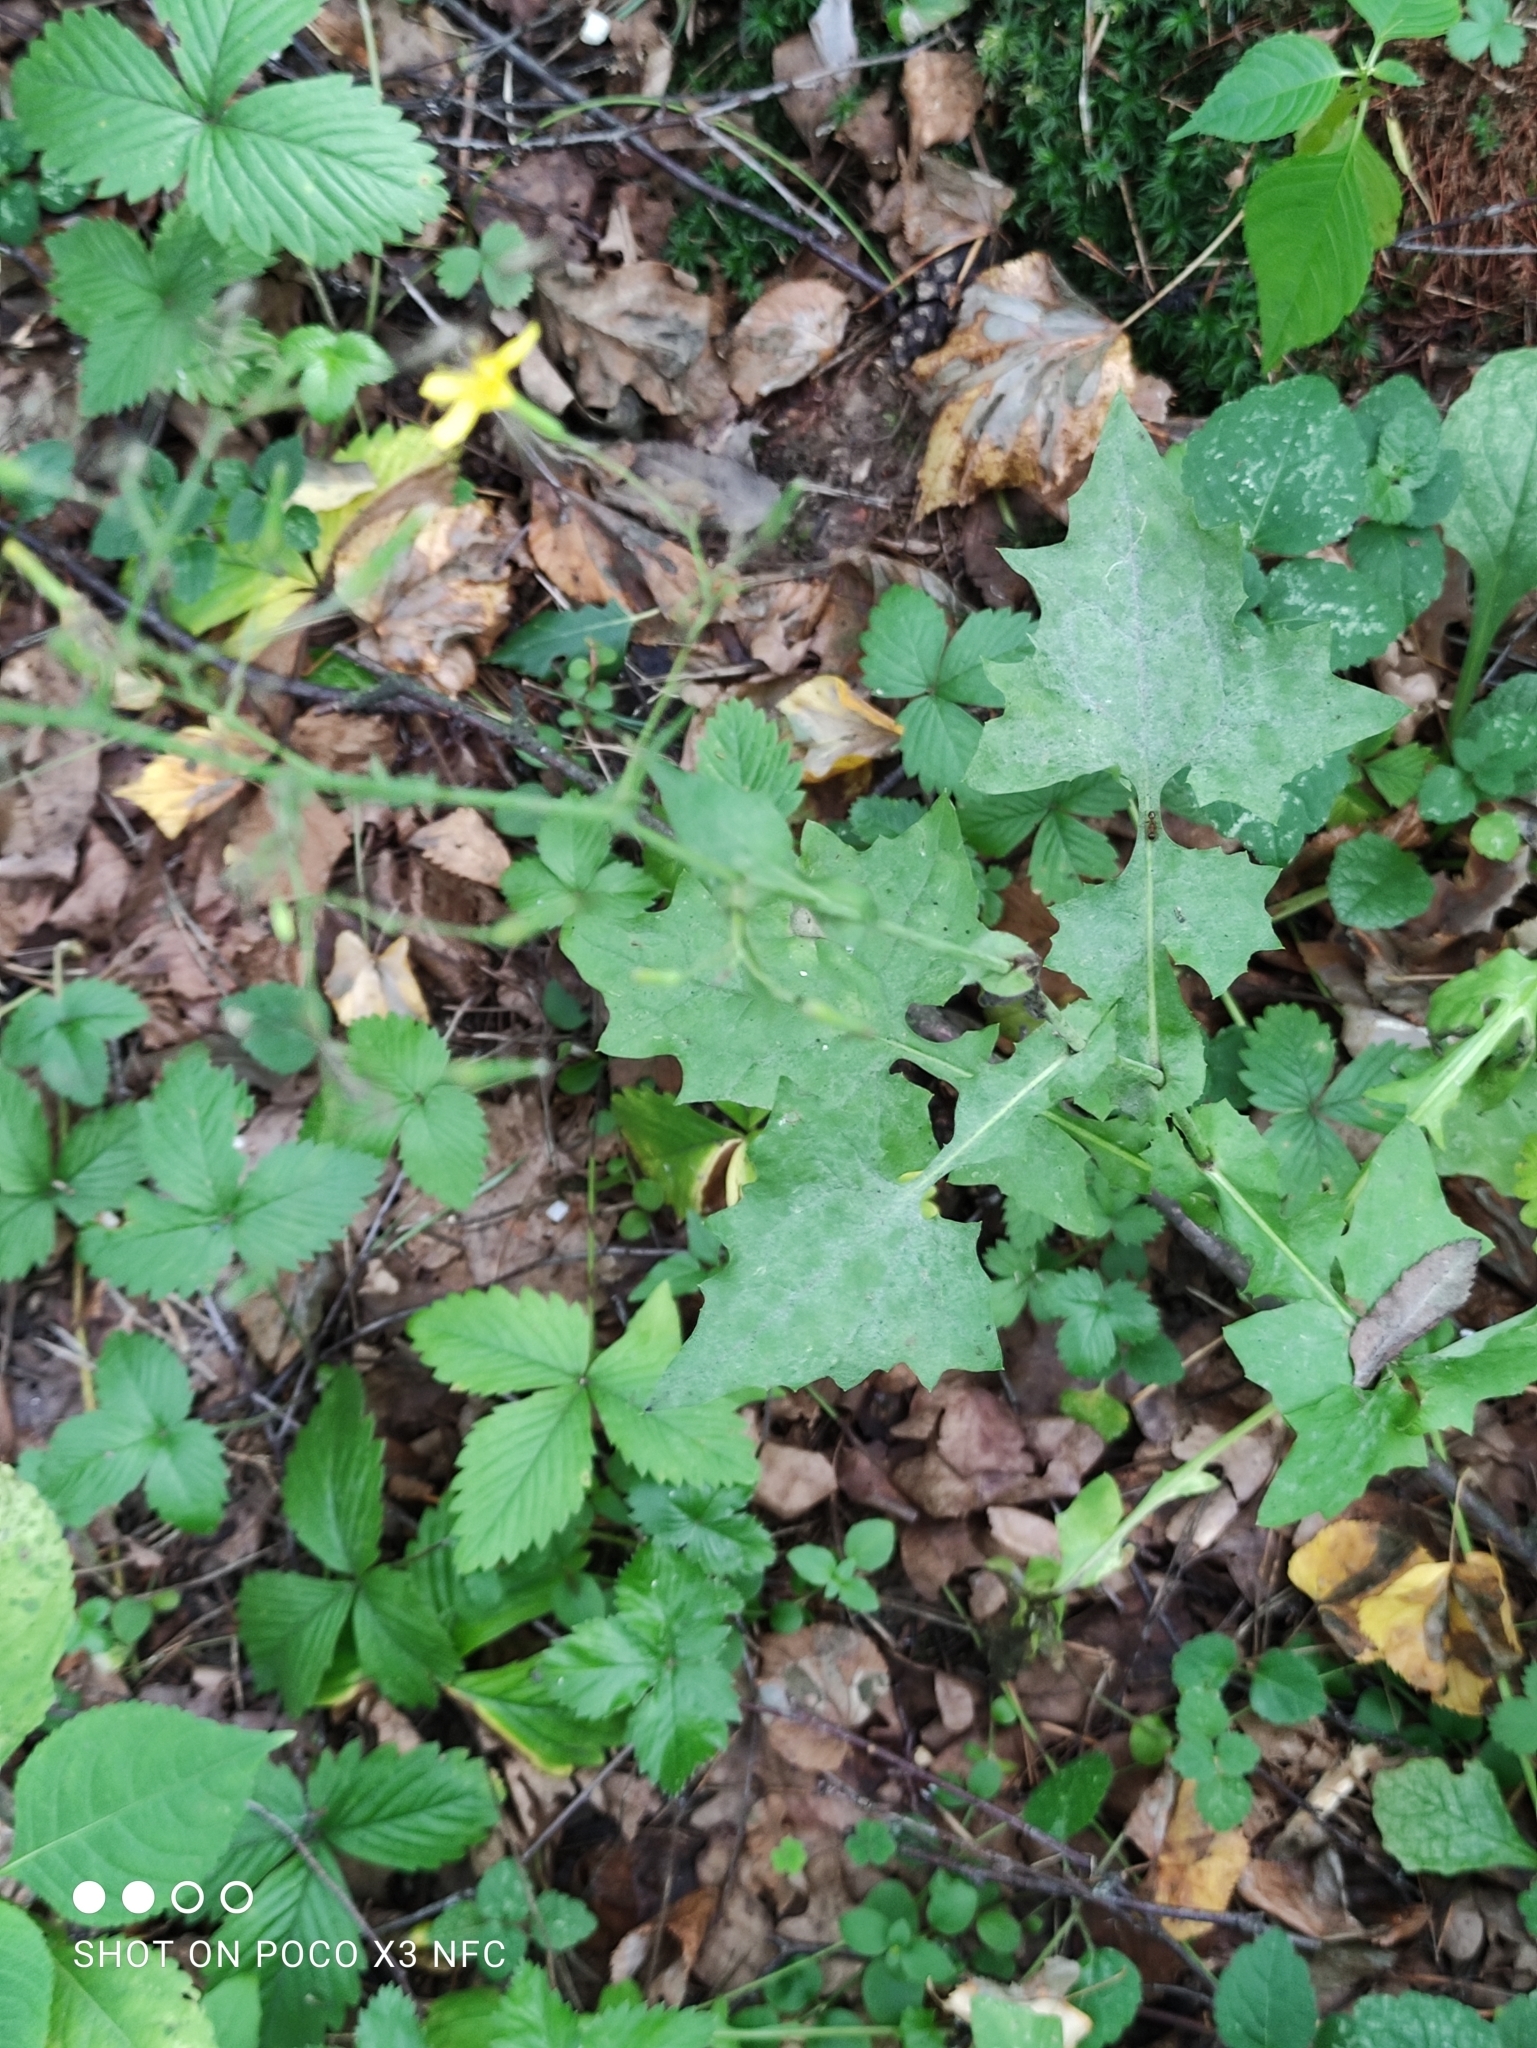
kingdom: Plantae
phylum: Tracheophyta
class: Magnoliopsida
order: Asterales
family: Asteraceae
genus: Mycelis
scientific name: Mycelis muralis
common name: Wall lettuce
